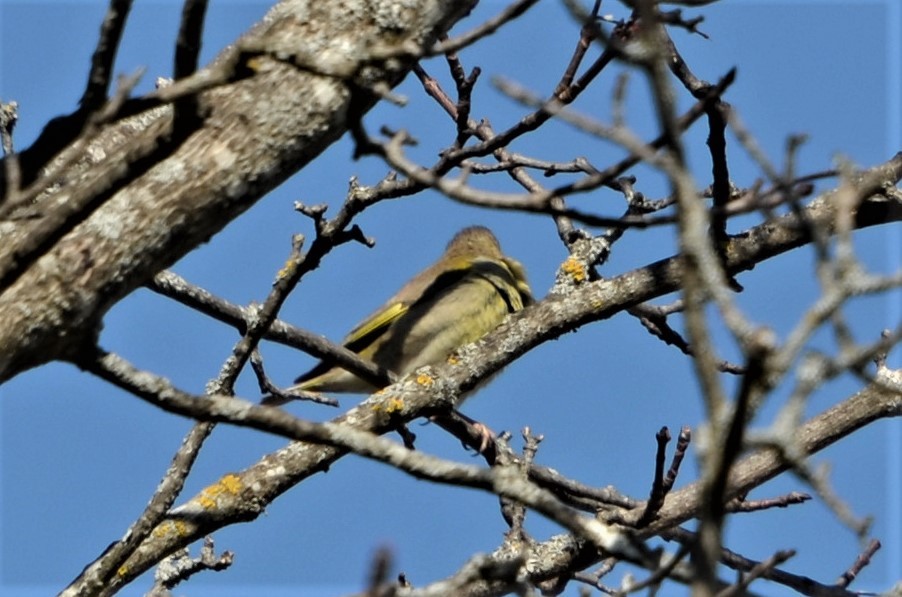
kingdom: Plantae
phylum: Tracheophyta
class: Liliopsida
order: Poales
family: Poaceae
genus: Chloris
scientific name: Chloris chloris
